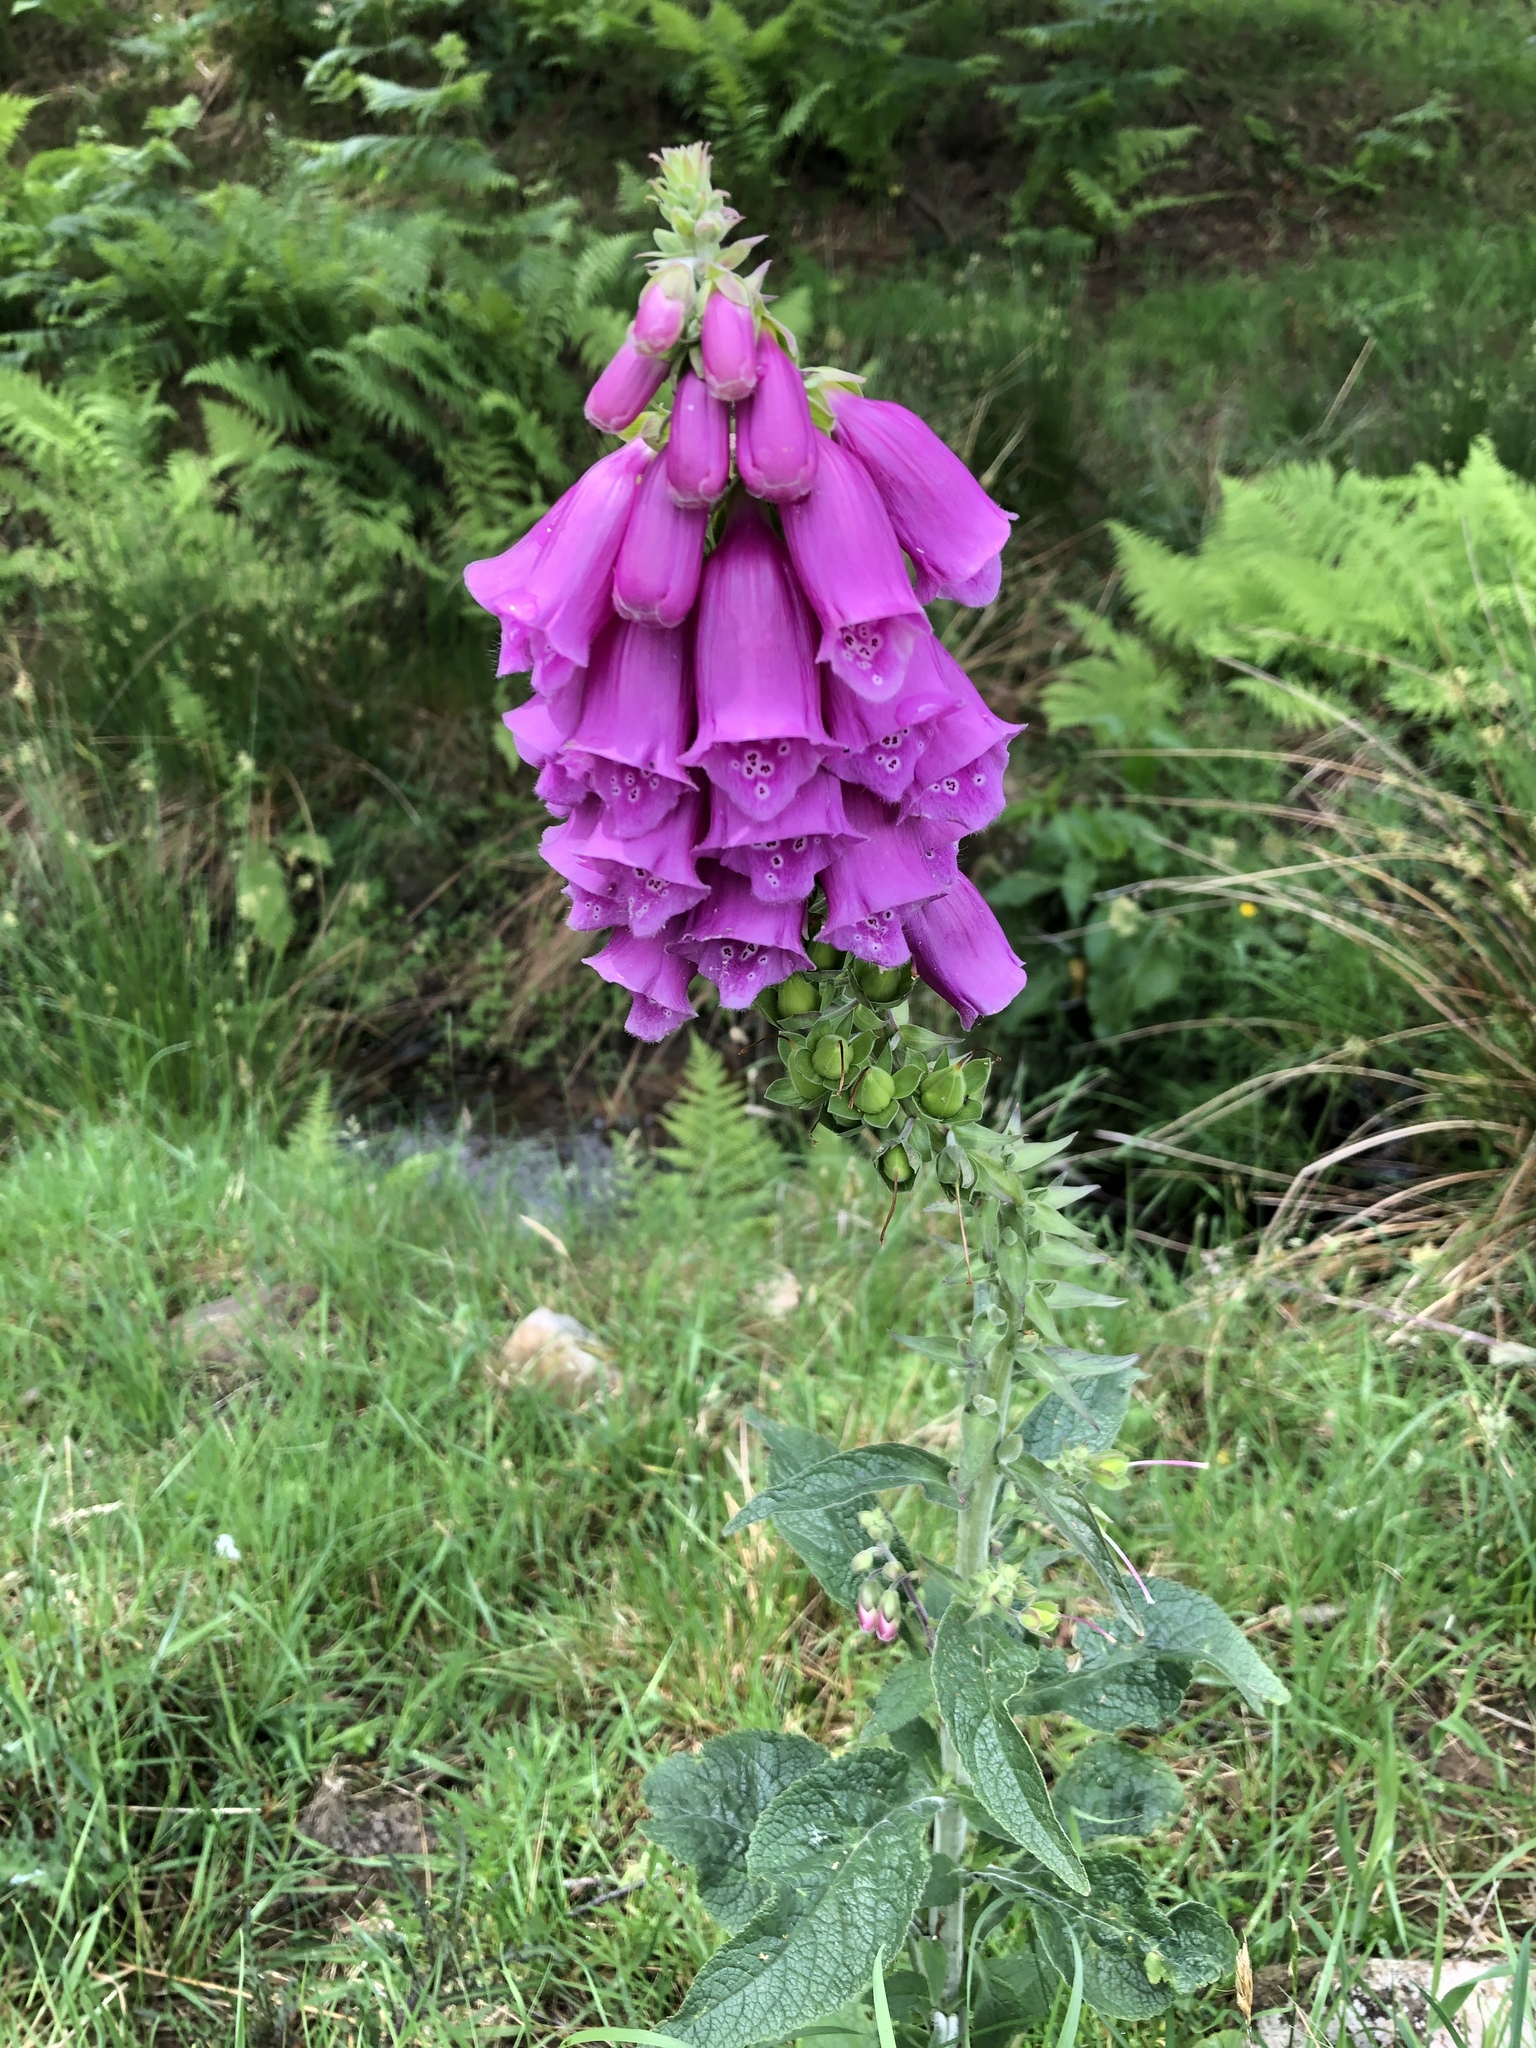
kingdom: Plantae
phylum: Tracheophyta
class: Magnoliopsida
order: Lamiales
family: Plantaginaceae
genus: Digitalis
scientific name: Digitalis purpurea
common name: Foxglove
